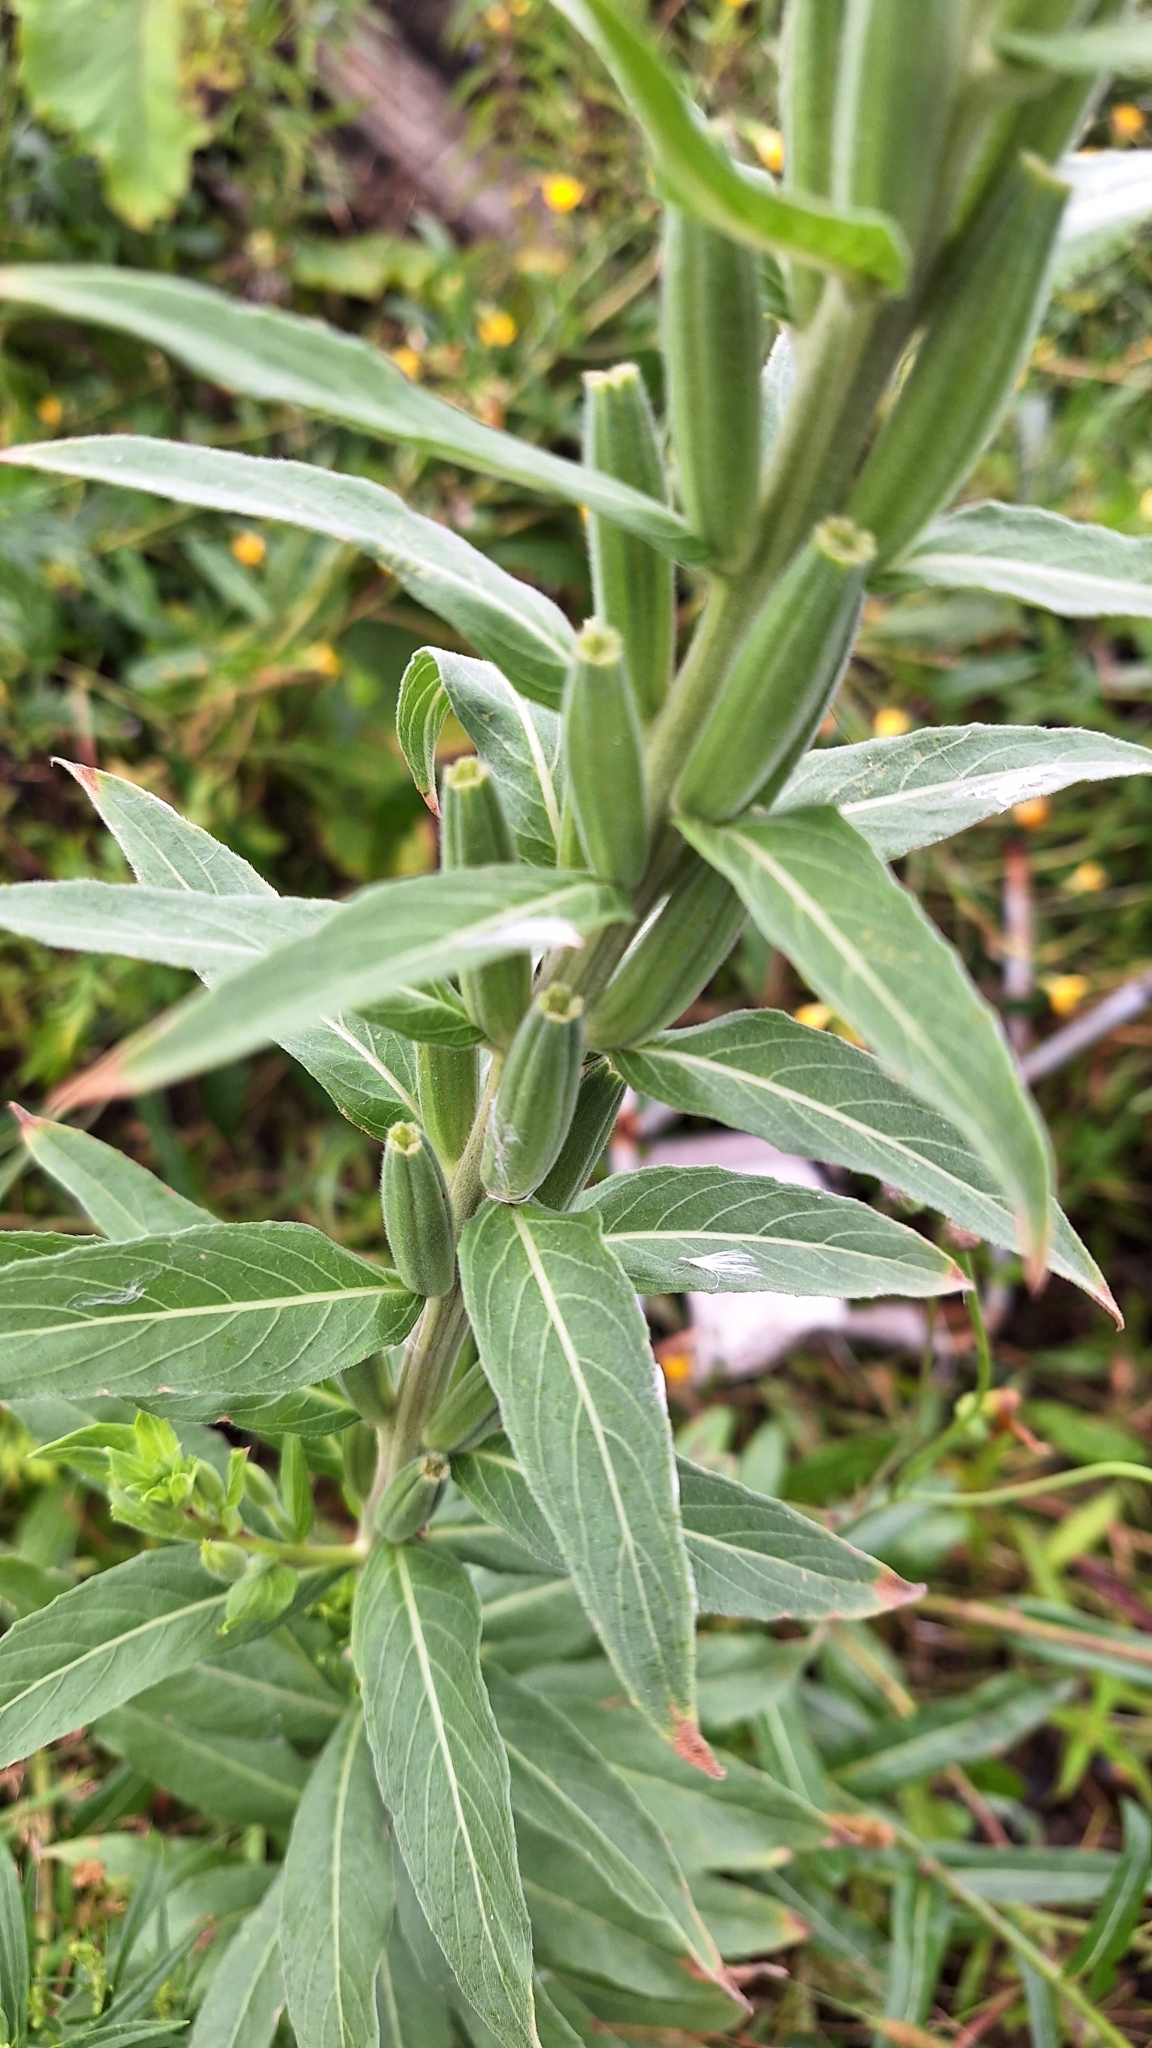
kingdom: Plantae
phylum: Tracheophyta
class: Magnoliopsida
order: Myrtales
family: Onagraceae
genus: Oenothera
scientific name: Oenothera villosa
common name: Hairy evening-primrose
